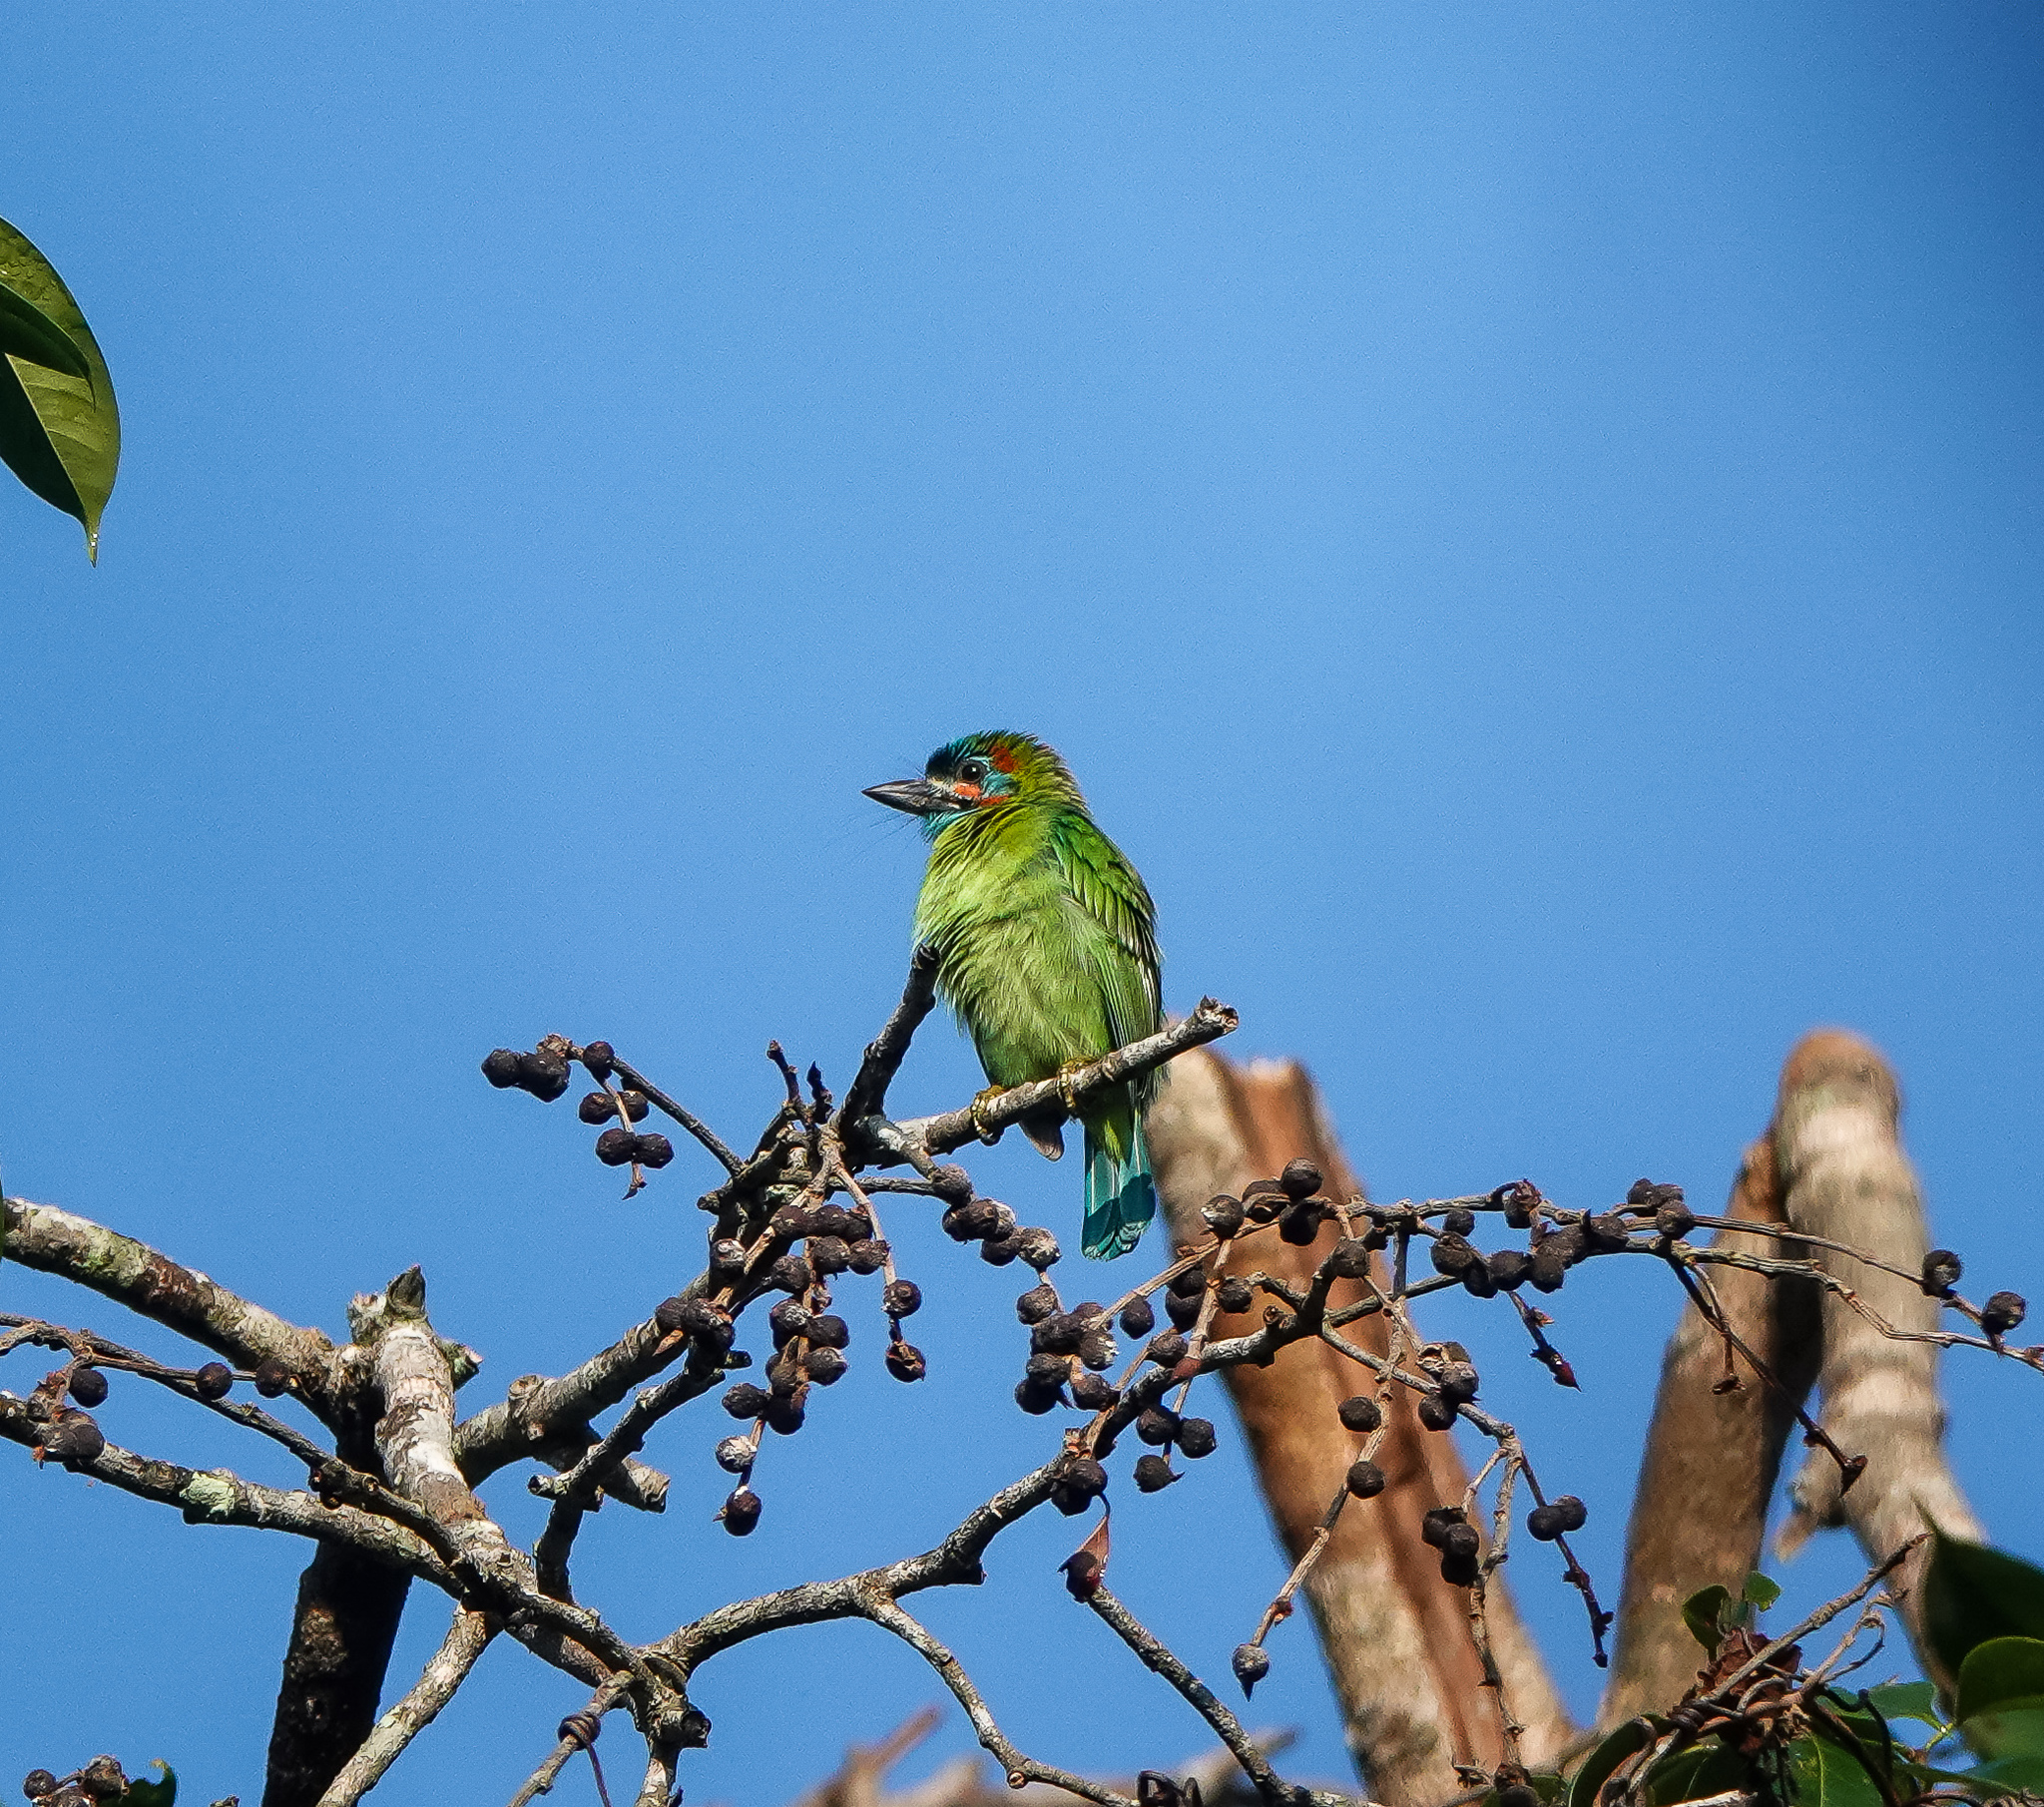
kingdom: Animalia
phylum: Chordata
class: Aves
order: Piciformes
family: Megalaimidae
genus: Psilopogon
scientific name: Psilopogon duvaucelii
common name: Blue-eared barbet
